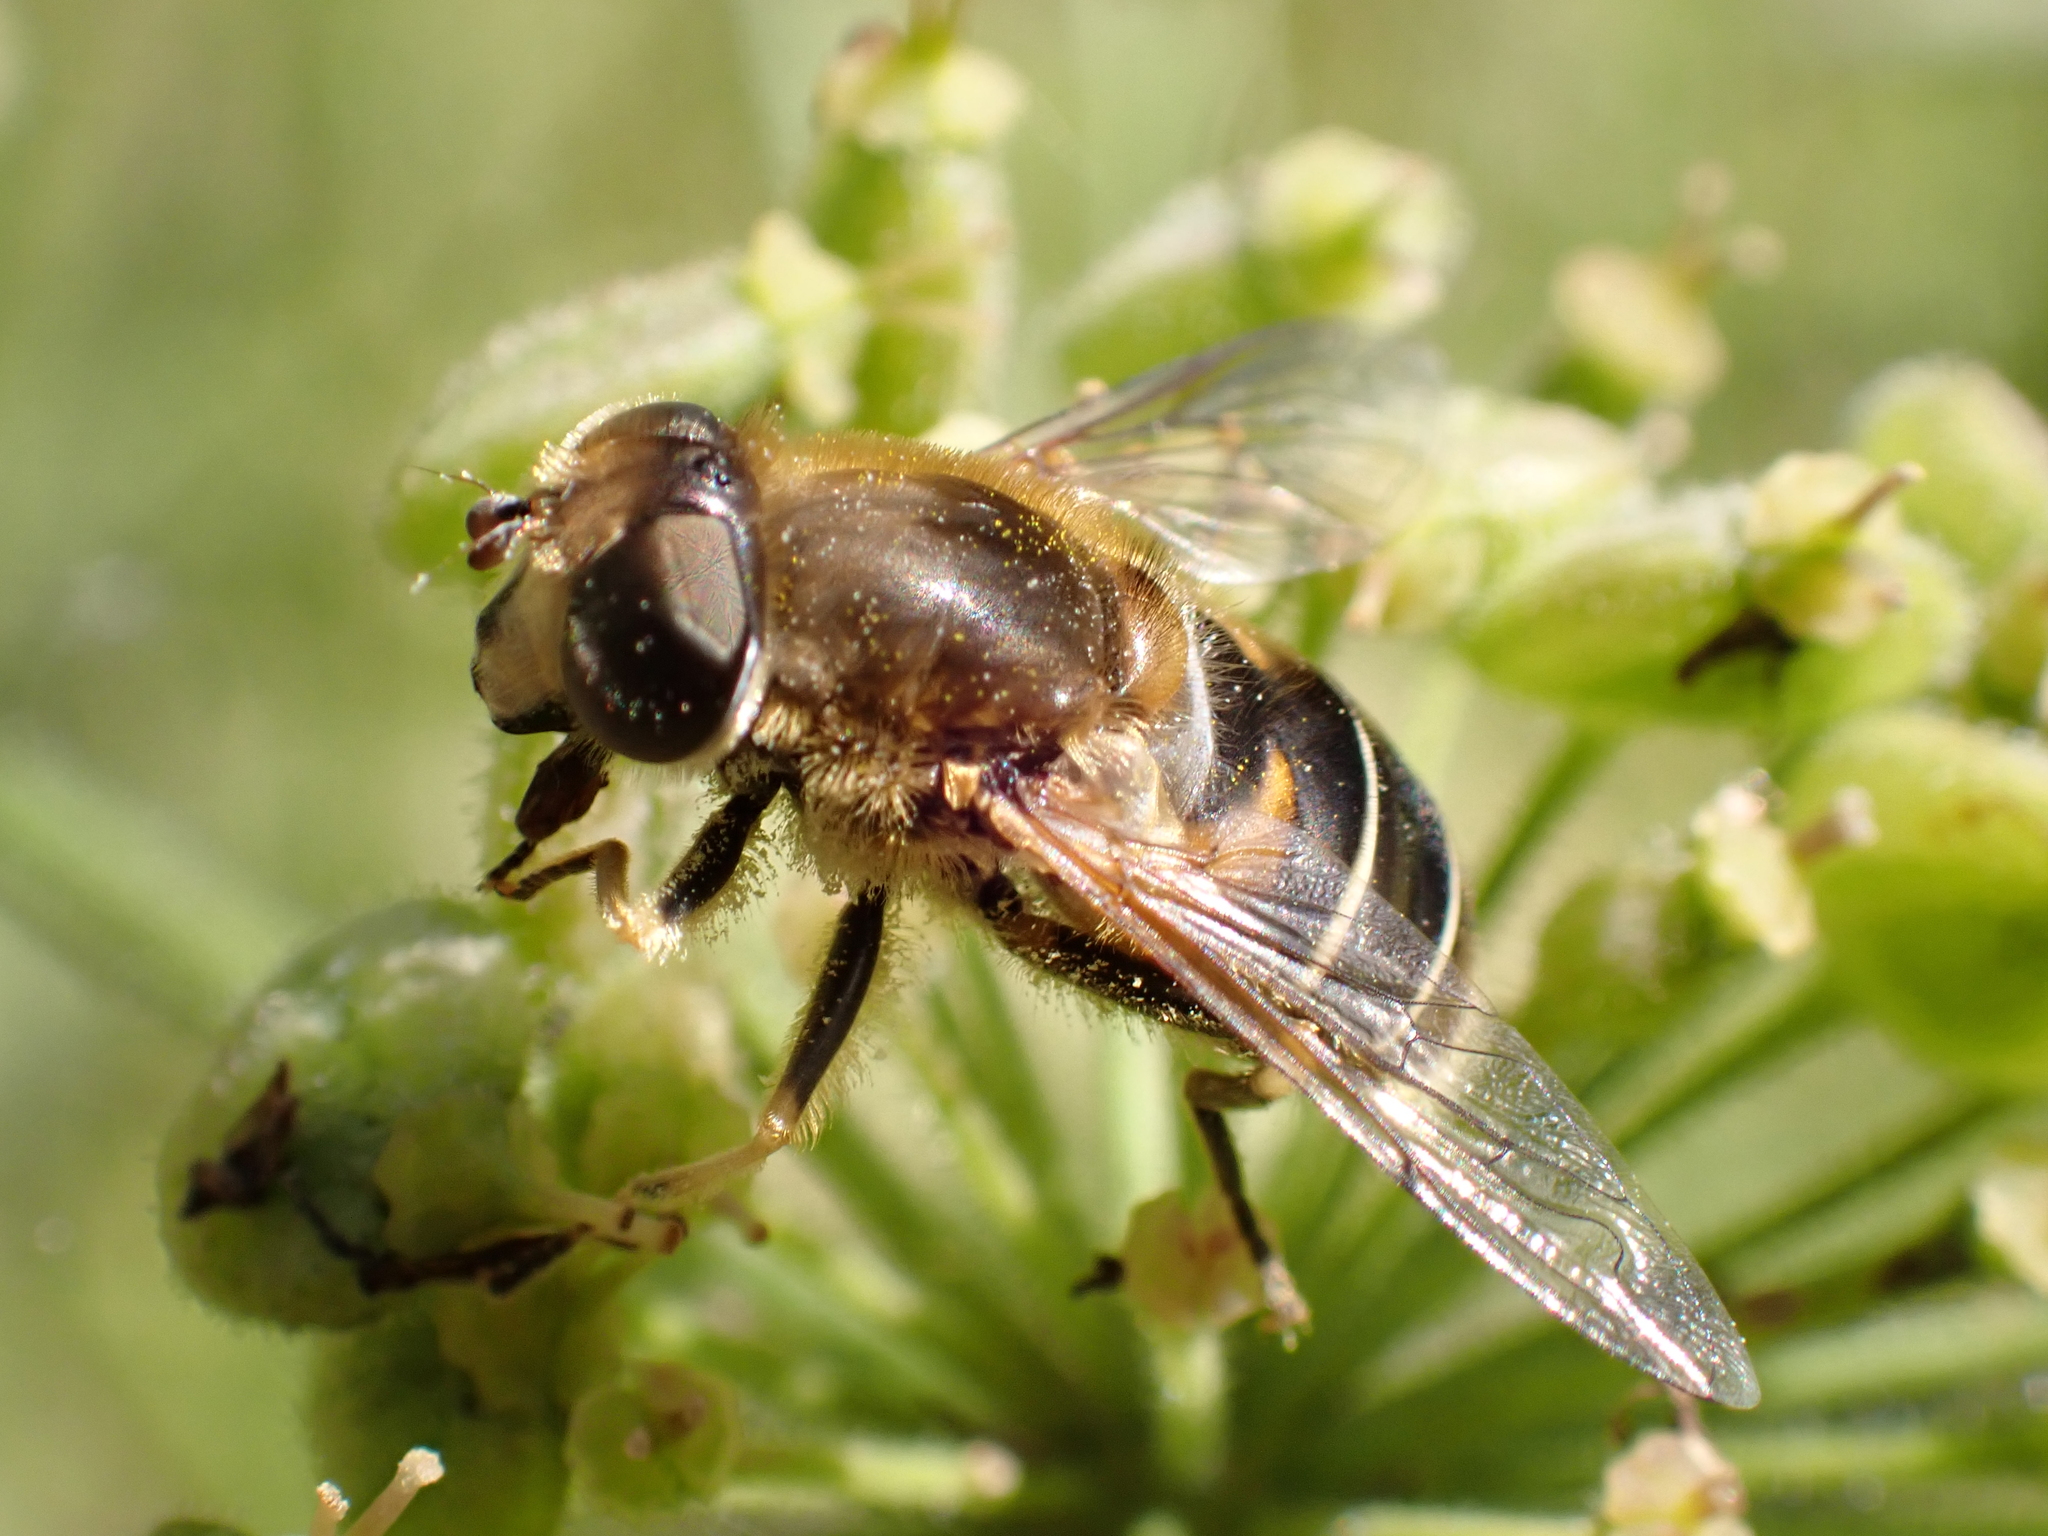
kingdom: Animalia
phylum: Arthropoda
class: Insecta
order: Diptera
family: Syrphidae
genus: Eristalis
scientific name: Eristalis nemorum
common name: Orange-spined drone fly
